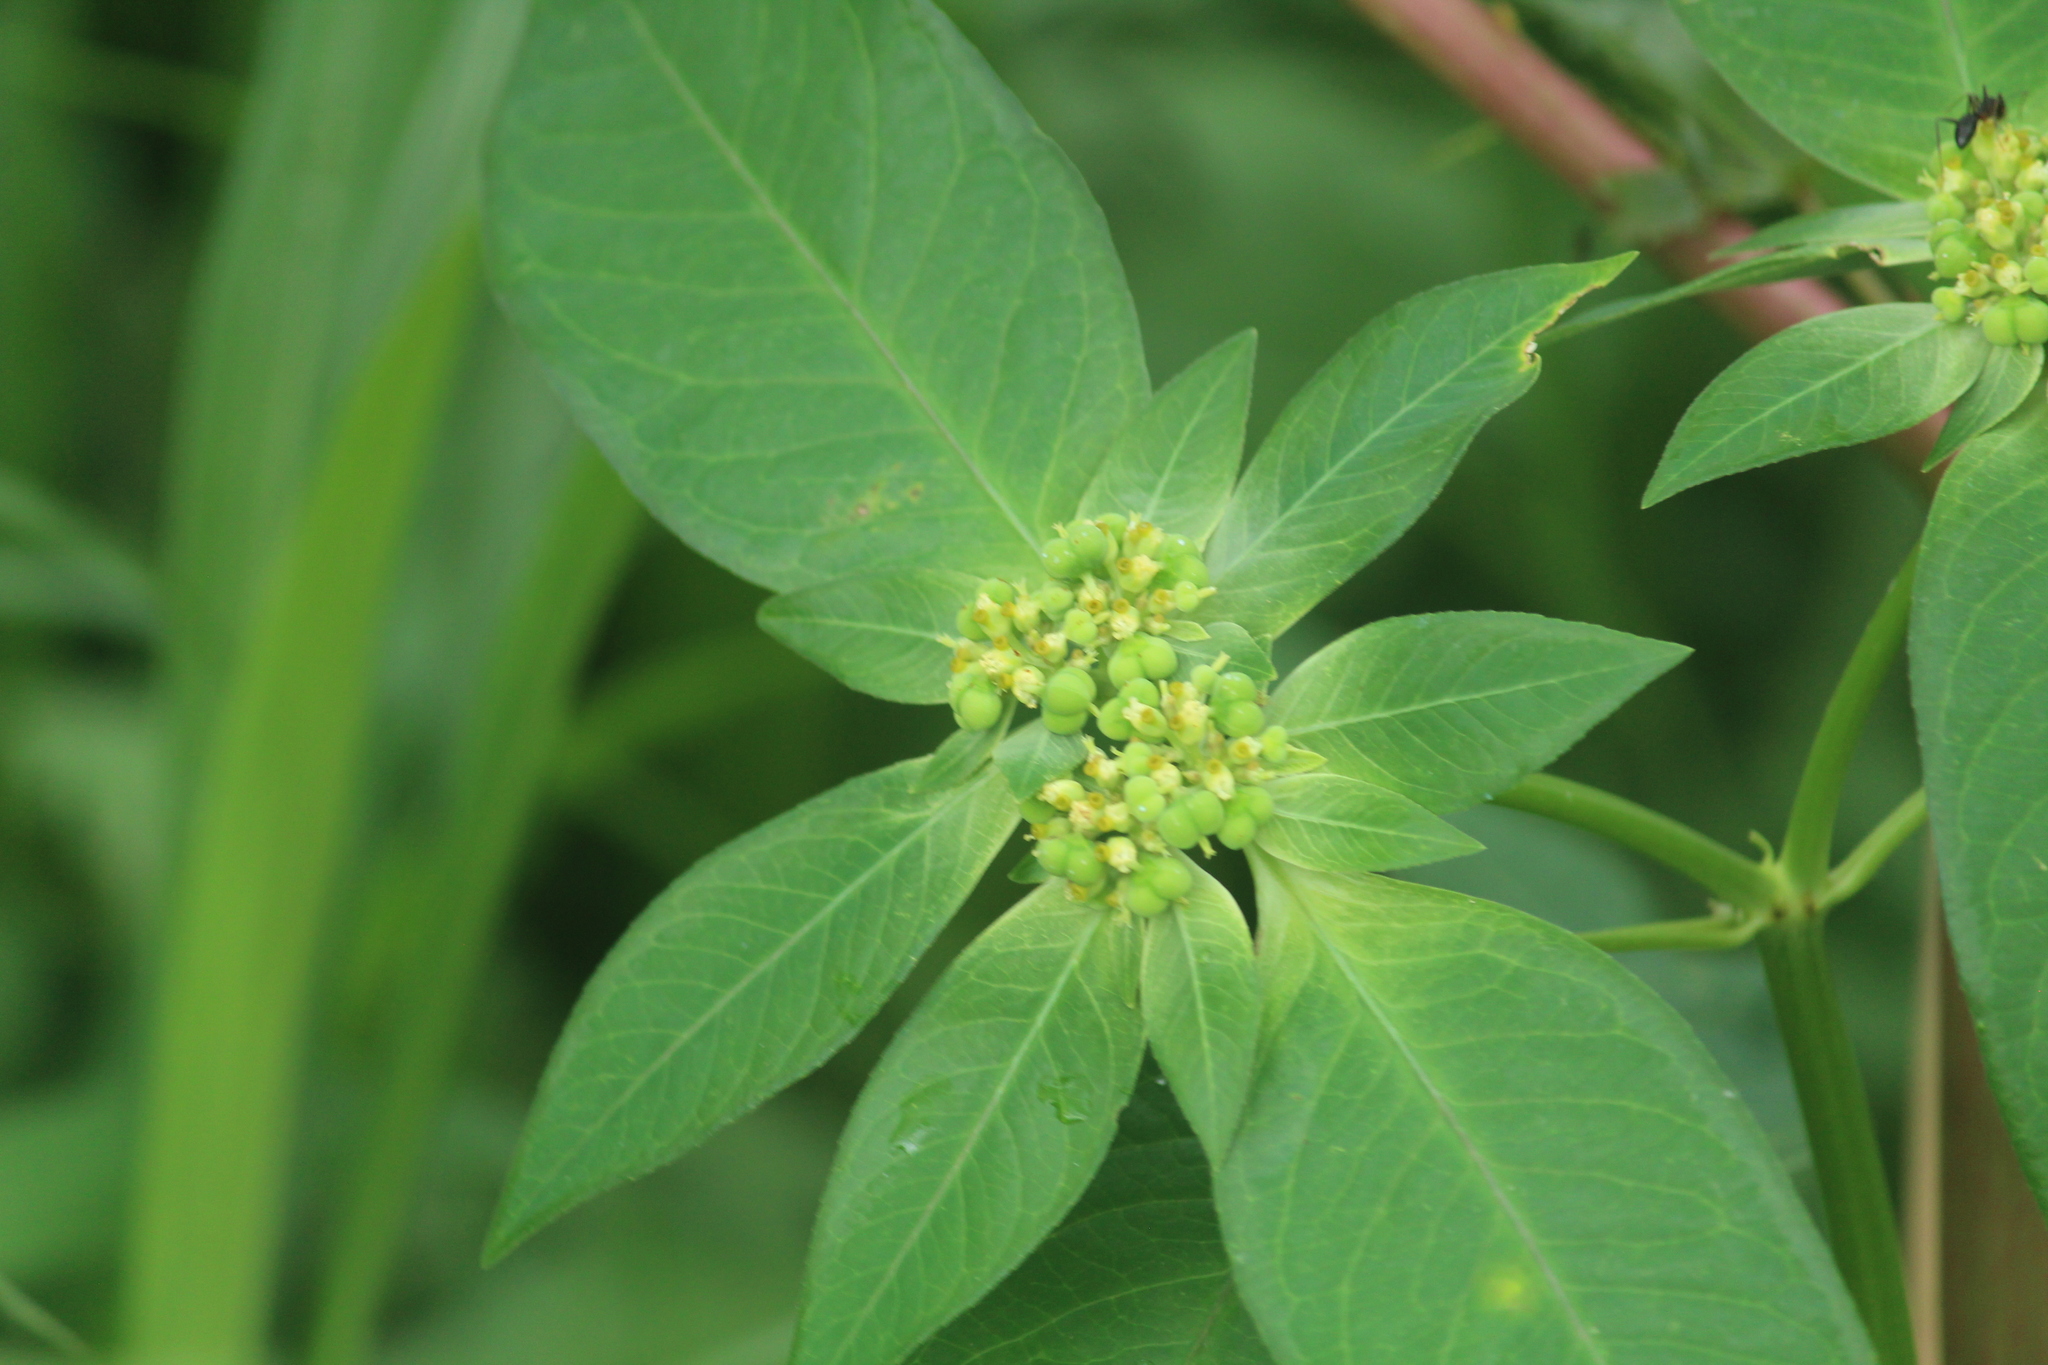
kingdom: Plantae
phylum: Tracheophyta
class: Magnoliopsida
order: Malpighiales
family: Euphorbiaceae
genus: Euphorbia
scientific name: Euphorbia heterophylla
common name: Mexican fireplant
